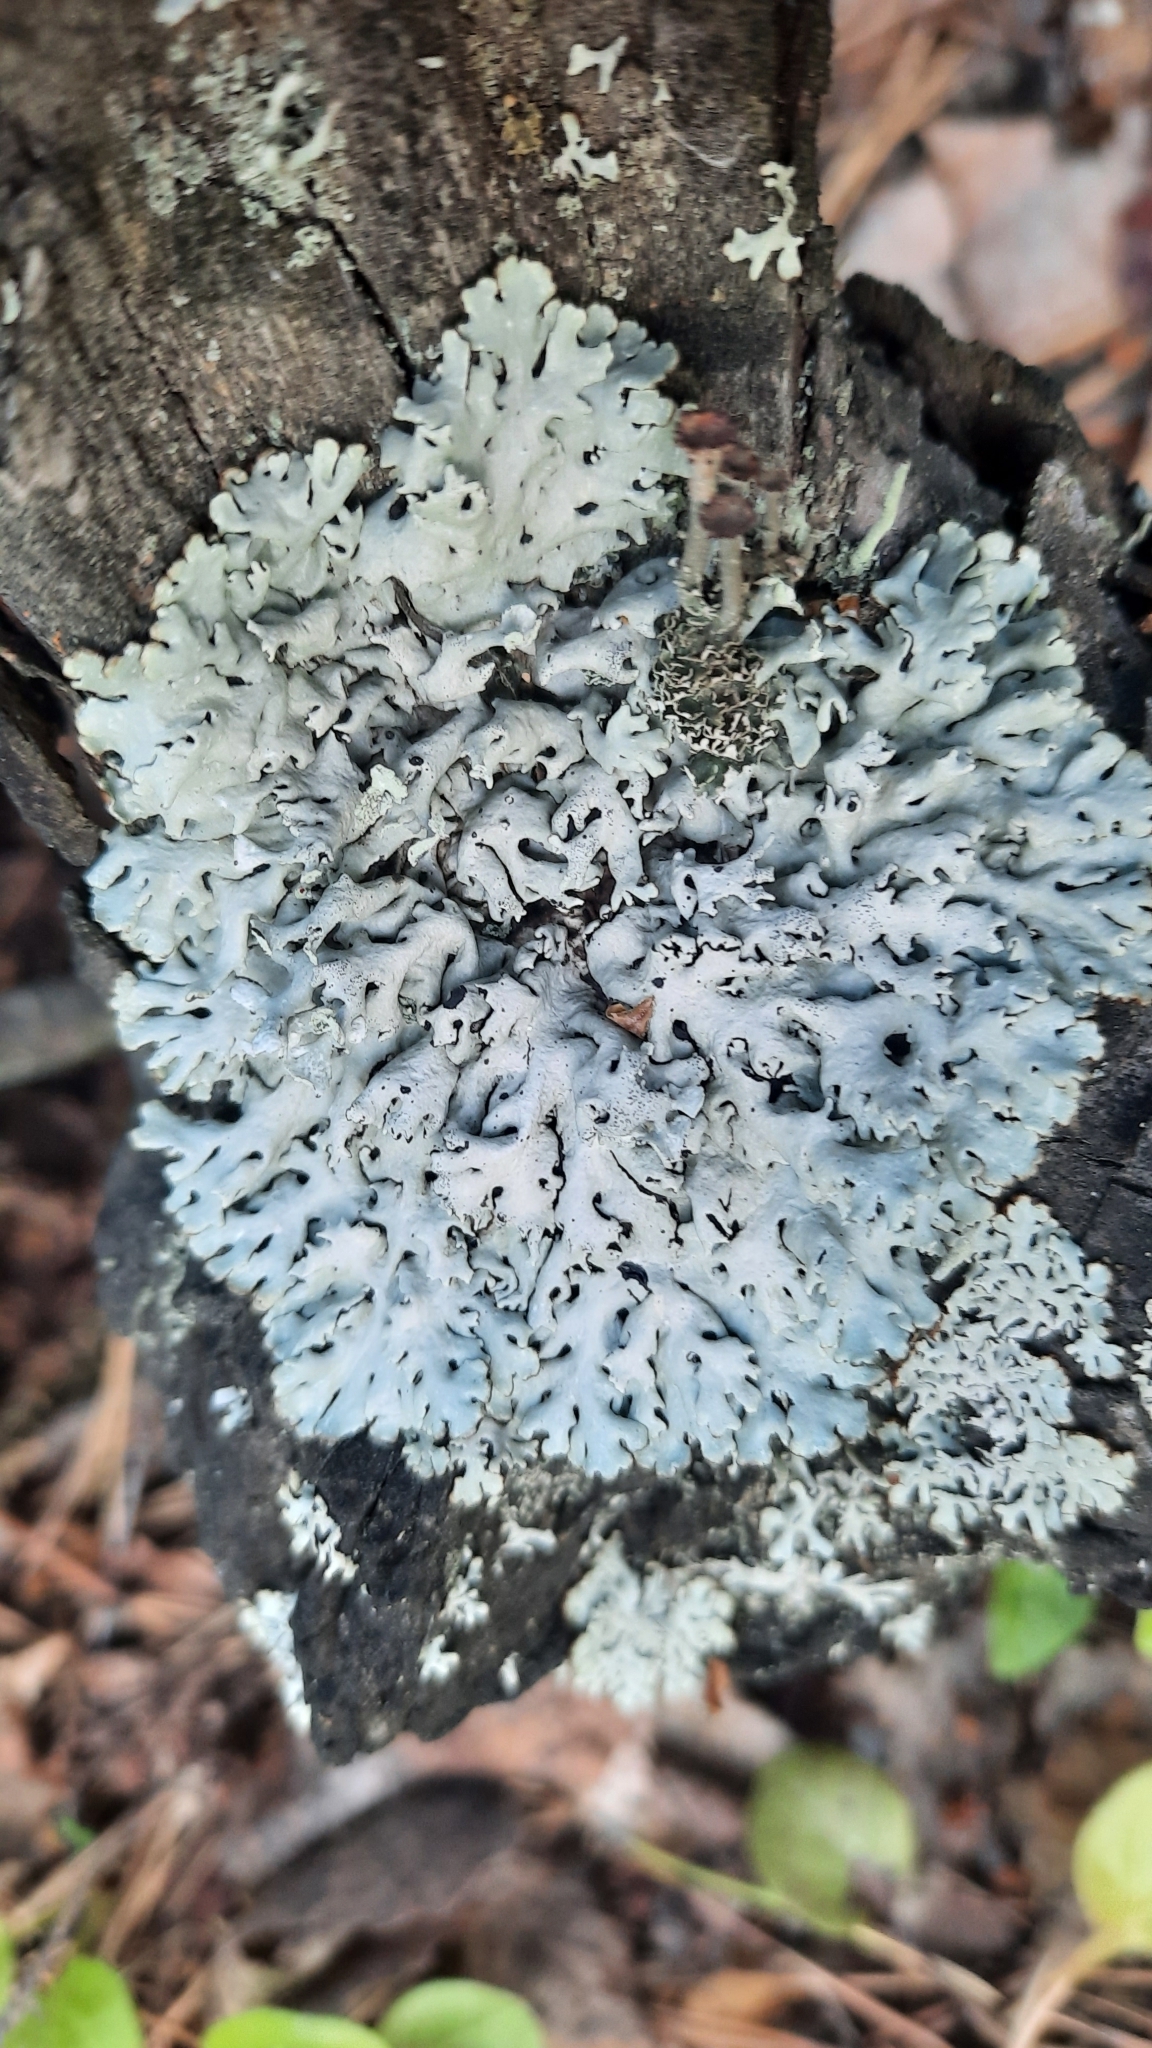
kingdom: Fungi
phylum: Ascomycota
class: Lecanoromycetes
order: Lecanorales
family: Parmeliaceae
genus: Hypogymnia
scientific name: Hypogymnia physodes
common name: Dark crottle
